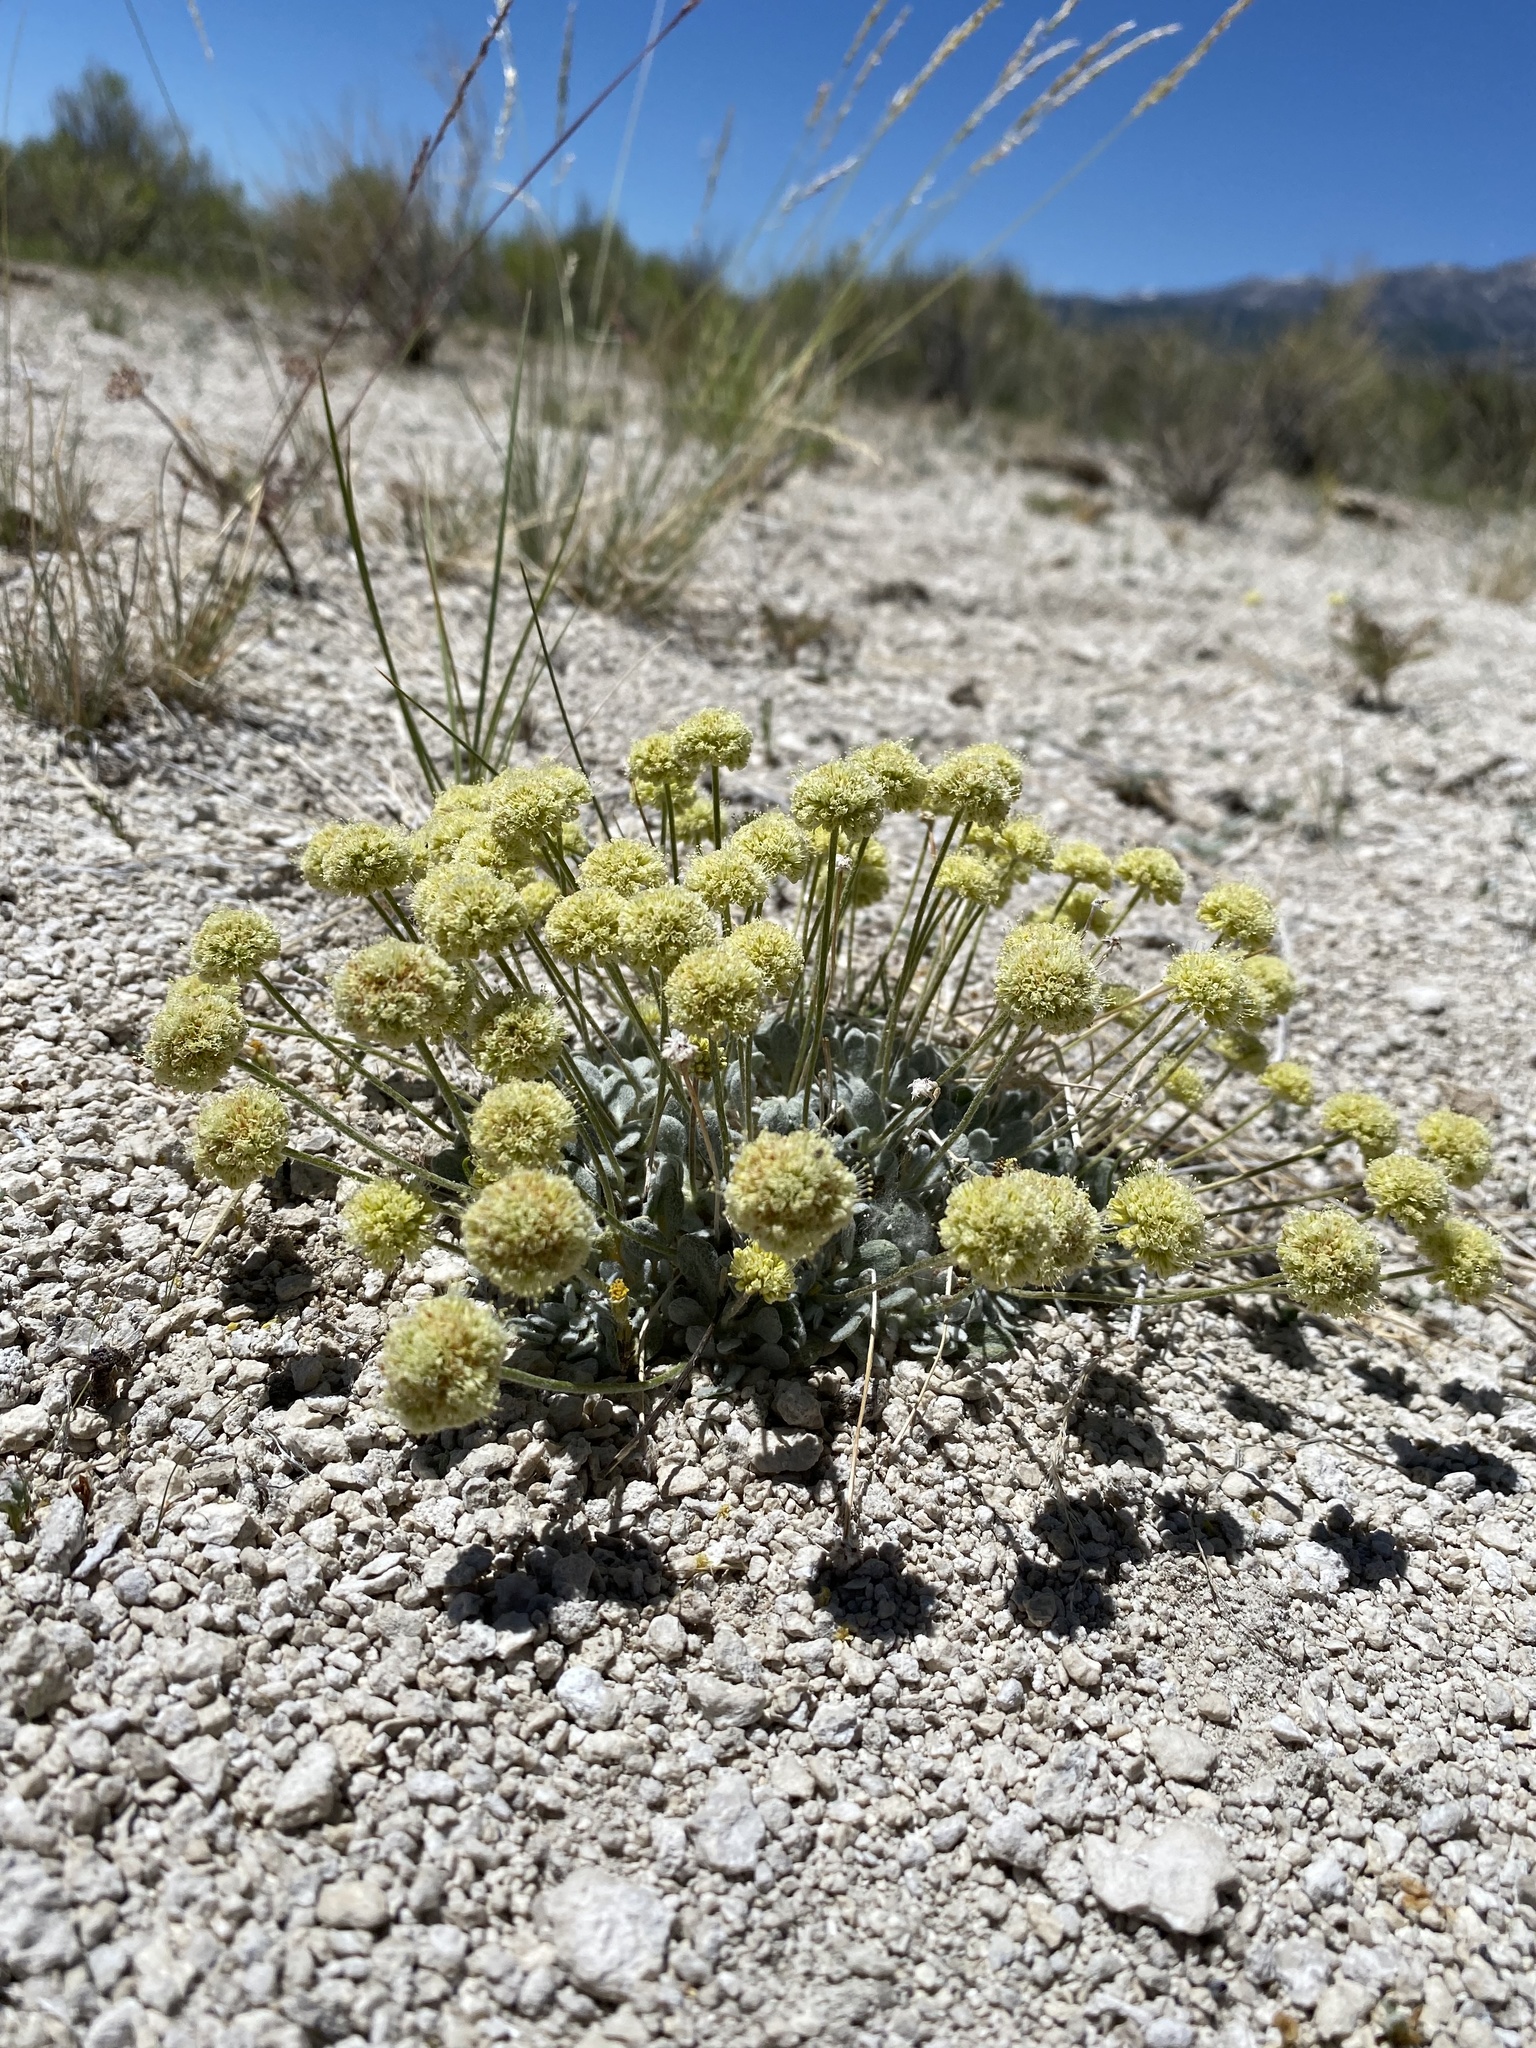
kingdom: Plantae
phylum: Tracheophyta
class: Magnoliopsida
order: Caryophyllales
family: Polygonaceae
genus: Eriogonum
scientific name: Eriogonum argophyllum
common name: Sulphur hot springs wild buckwheat
